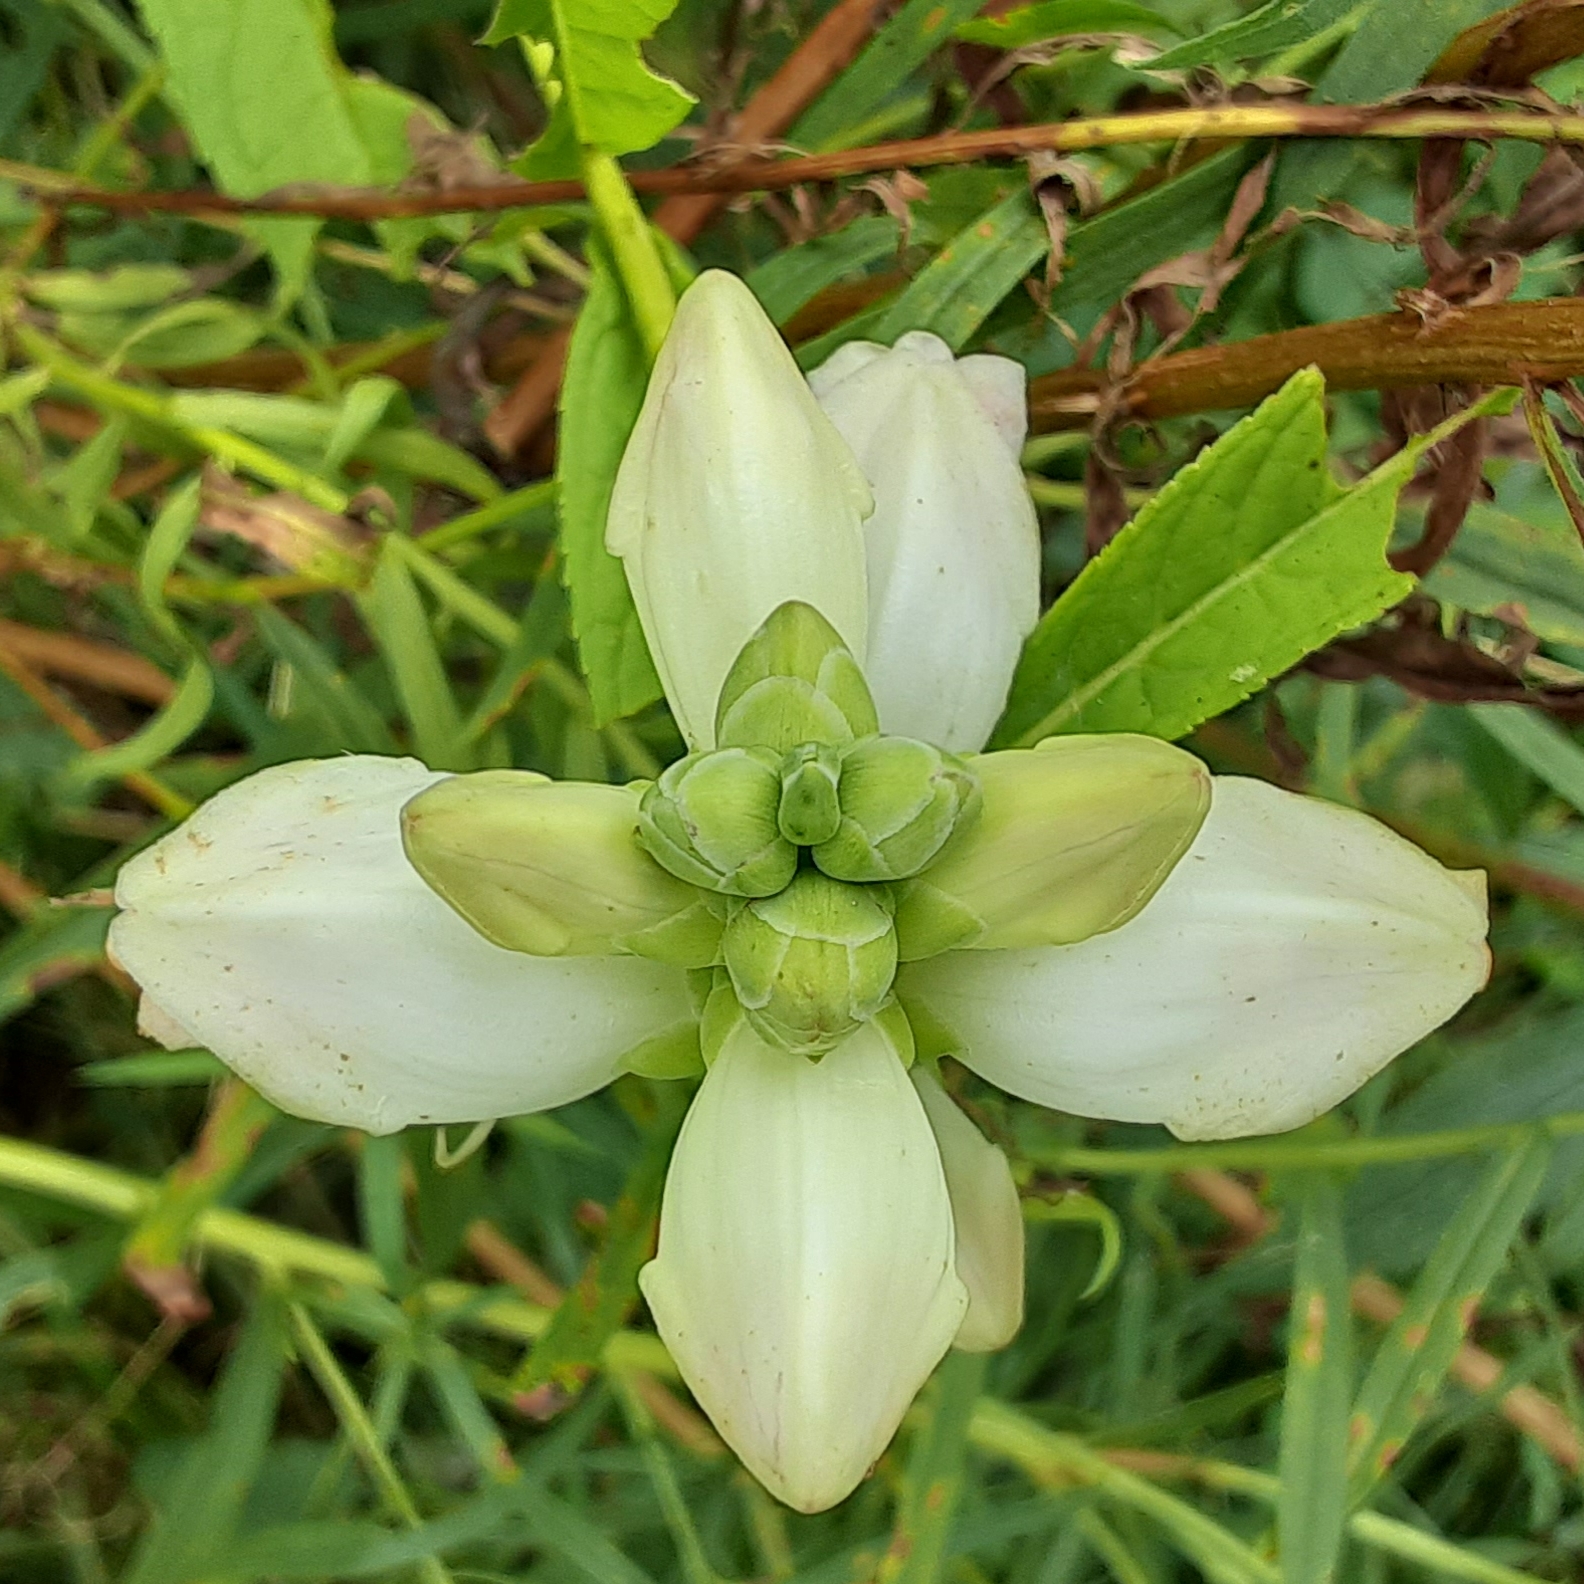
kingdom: Plantae
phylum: Tracheophyta
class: Magnoliopsida
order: Lamiales
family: Plantaginaceae
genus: Chelone
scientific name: Chelone glabra
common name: Snakehead
